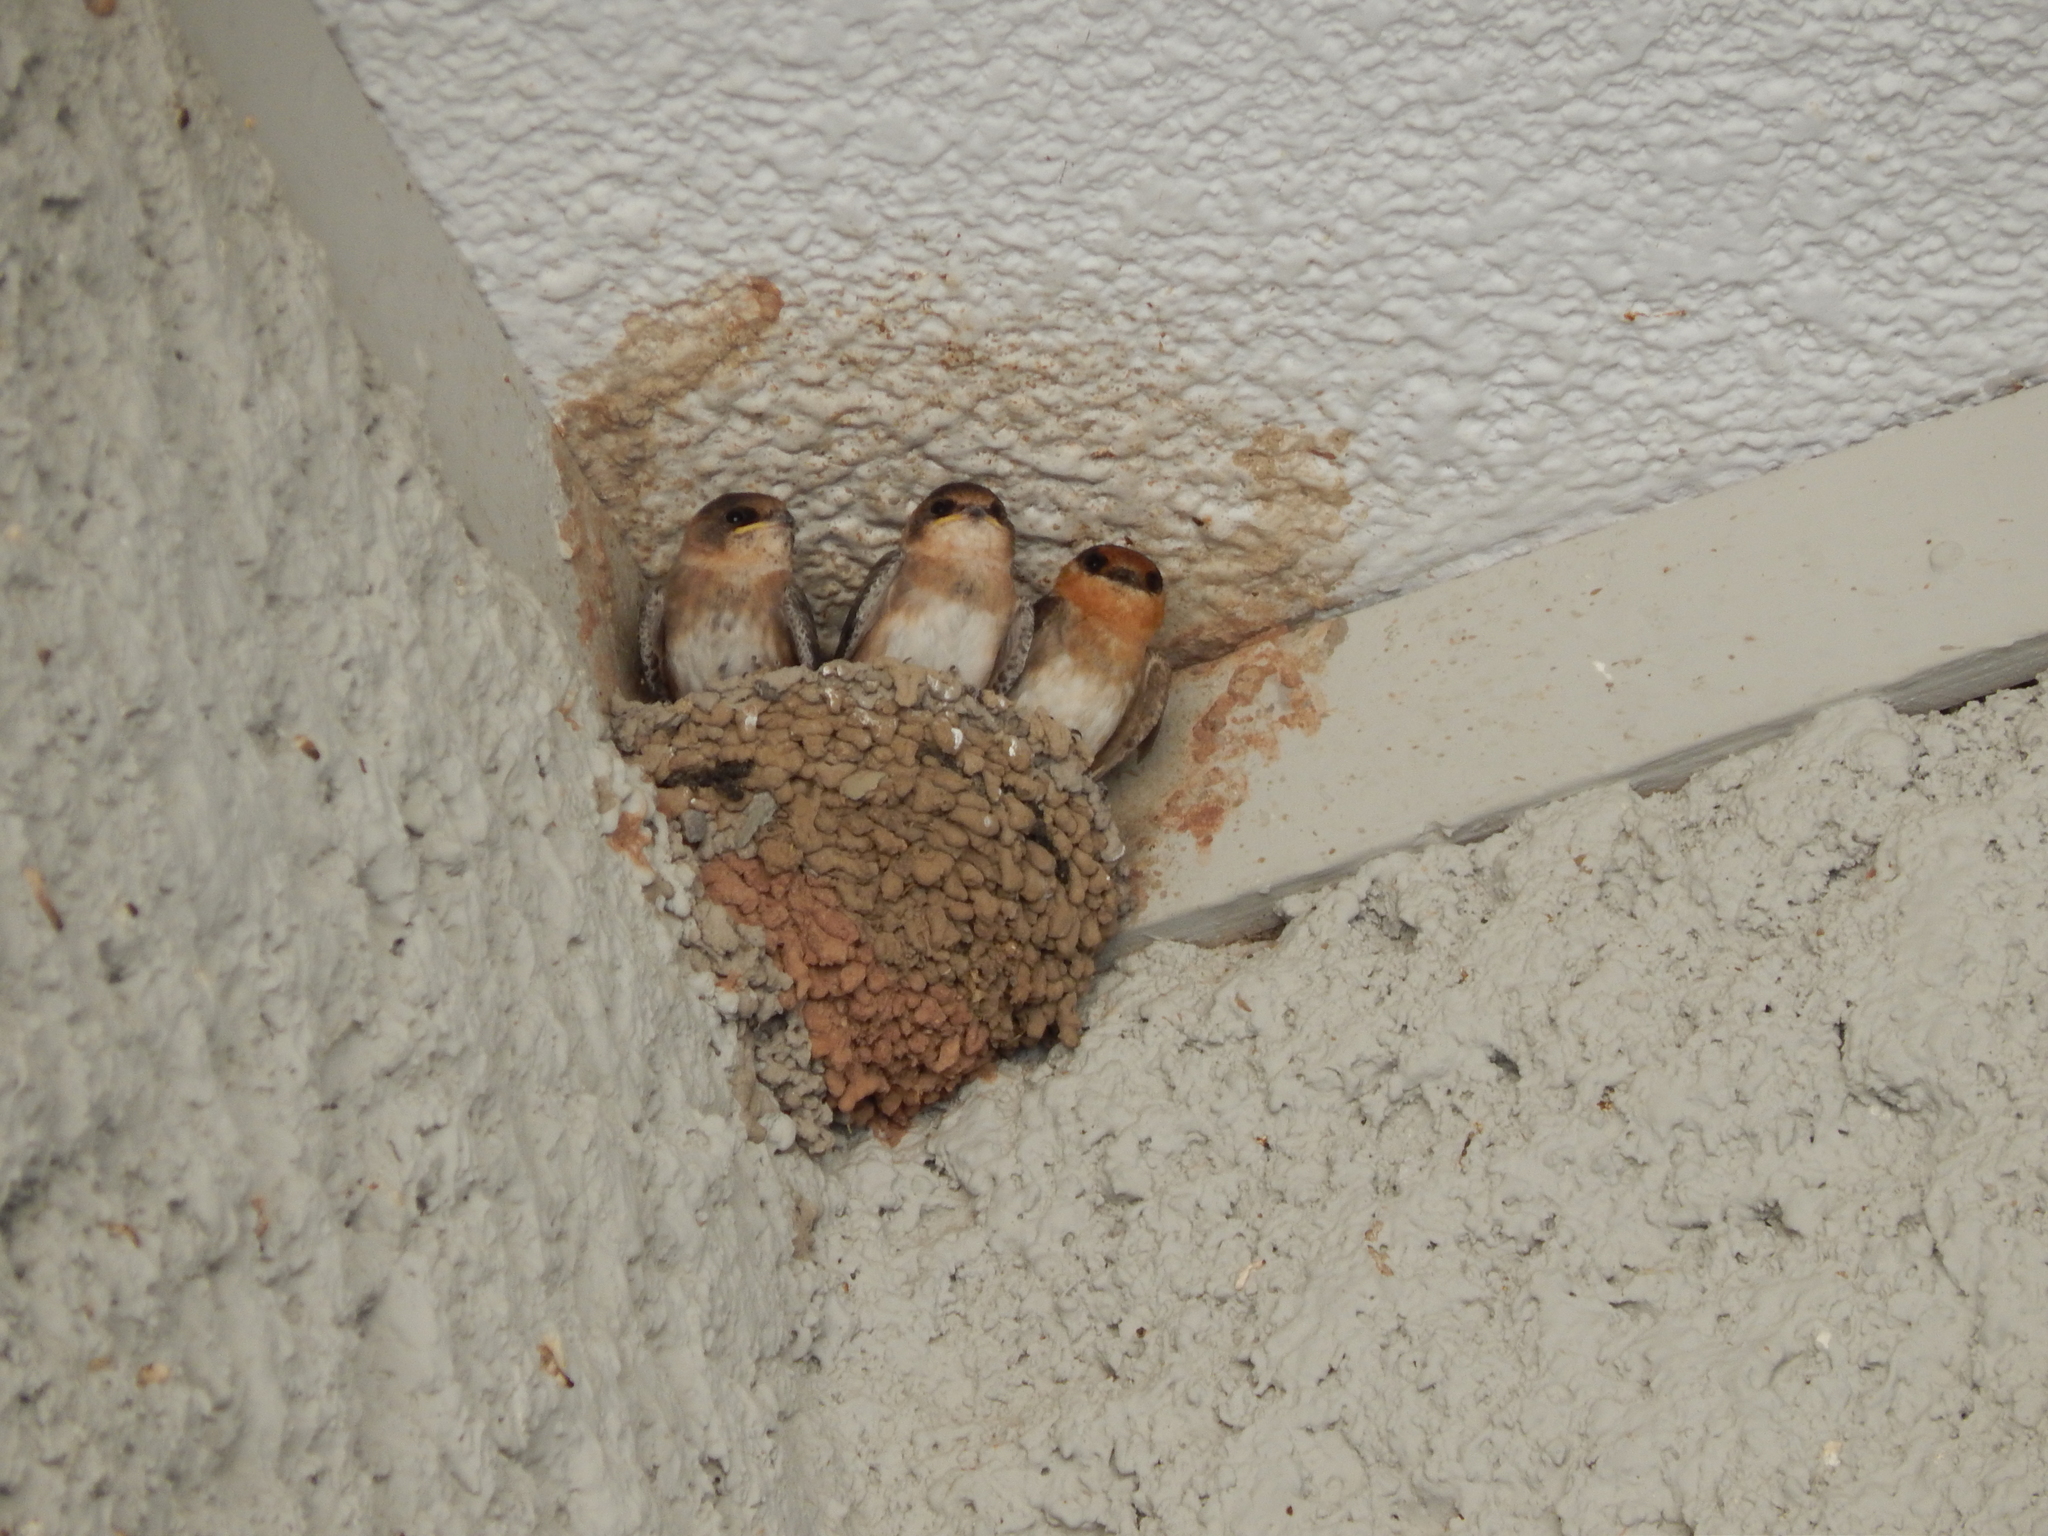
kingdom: Animalia
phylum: Chordata
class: Aves
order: Passeriformes
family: Hirundinidae
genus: Petrochelidon
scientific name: Petrochelidon fulva
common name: Cave swallow
